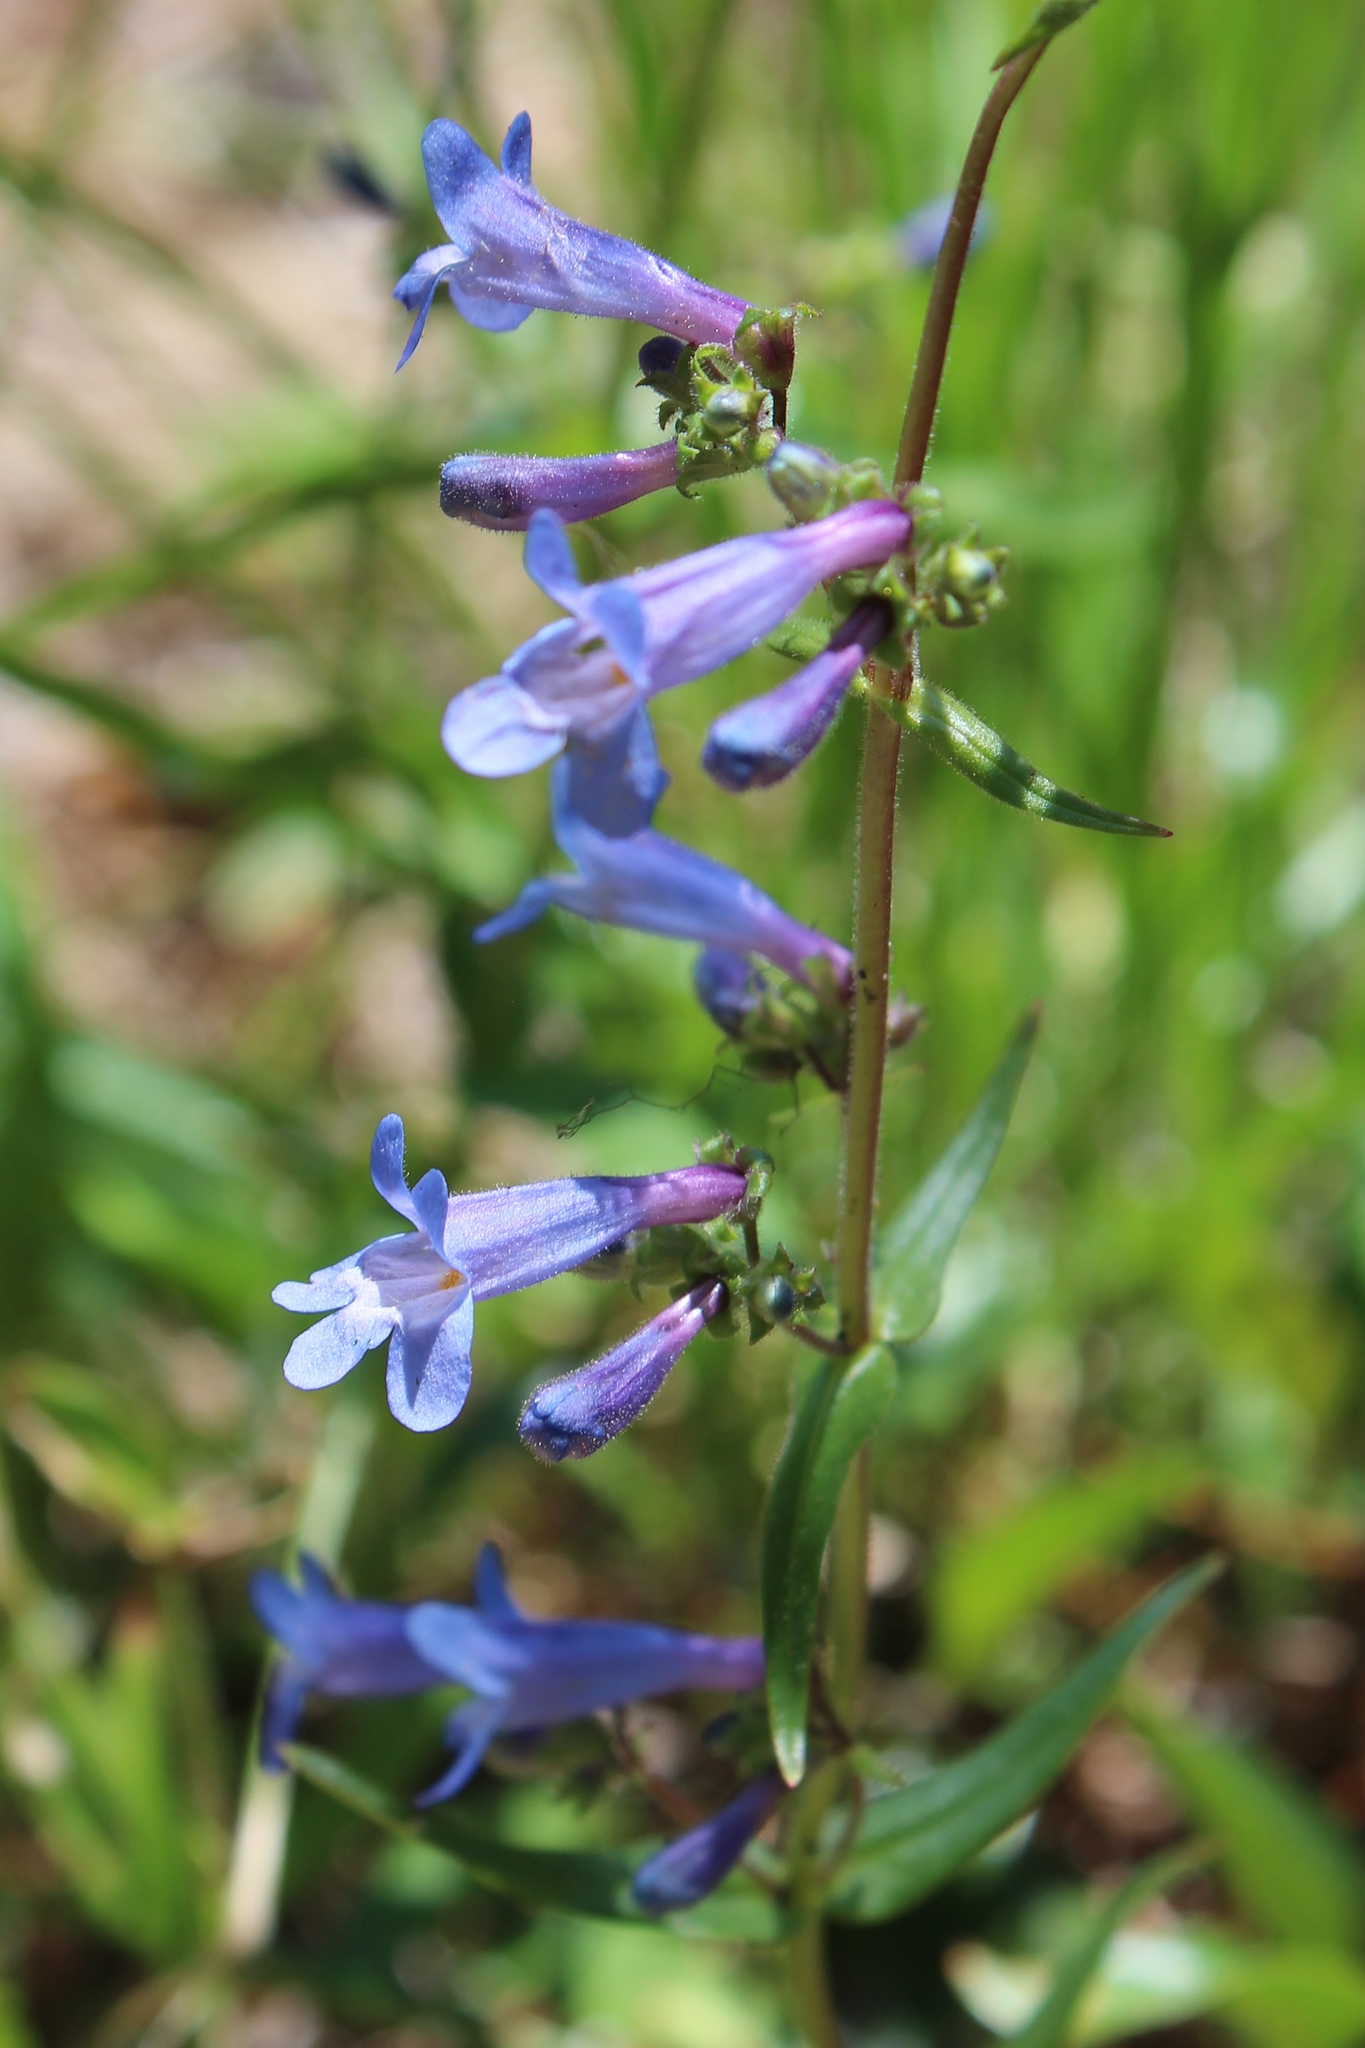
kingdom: Plantae
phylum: Tracheophyta
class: Magnoliopsida
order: Lamiales
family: Plantaginaceae
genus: Penstemon
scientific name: Penstemon albertinus
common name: Alberta beardtongue
